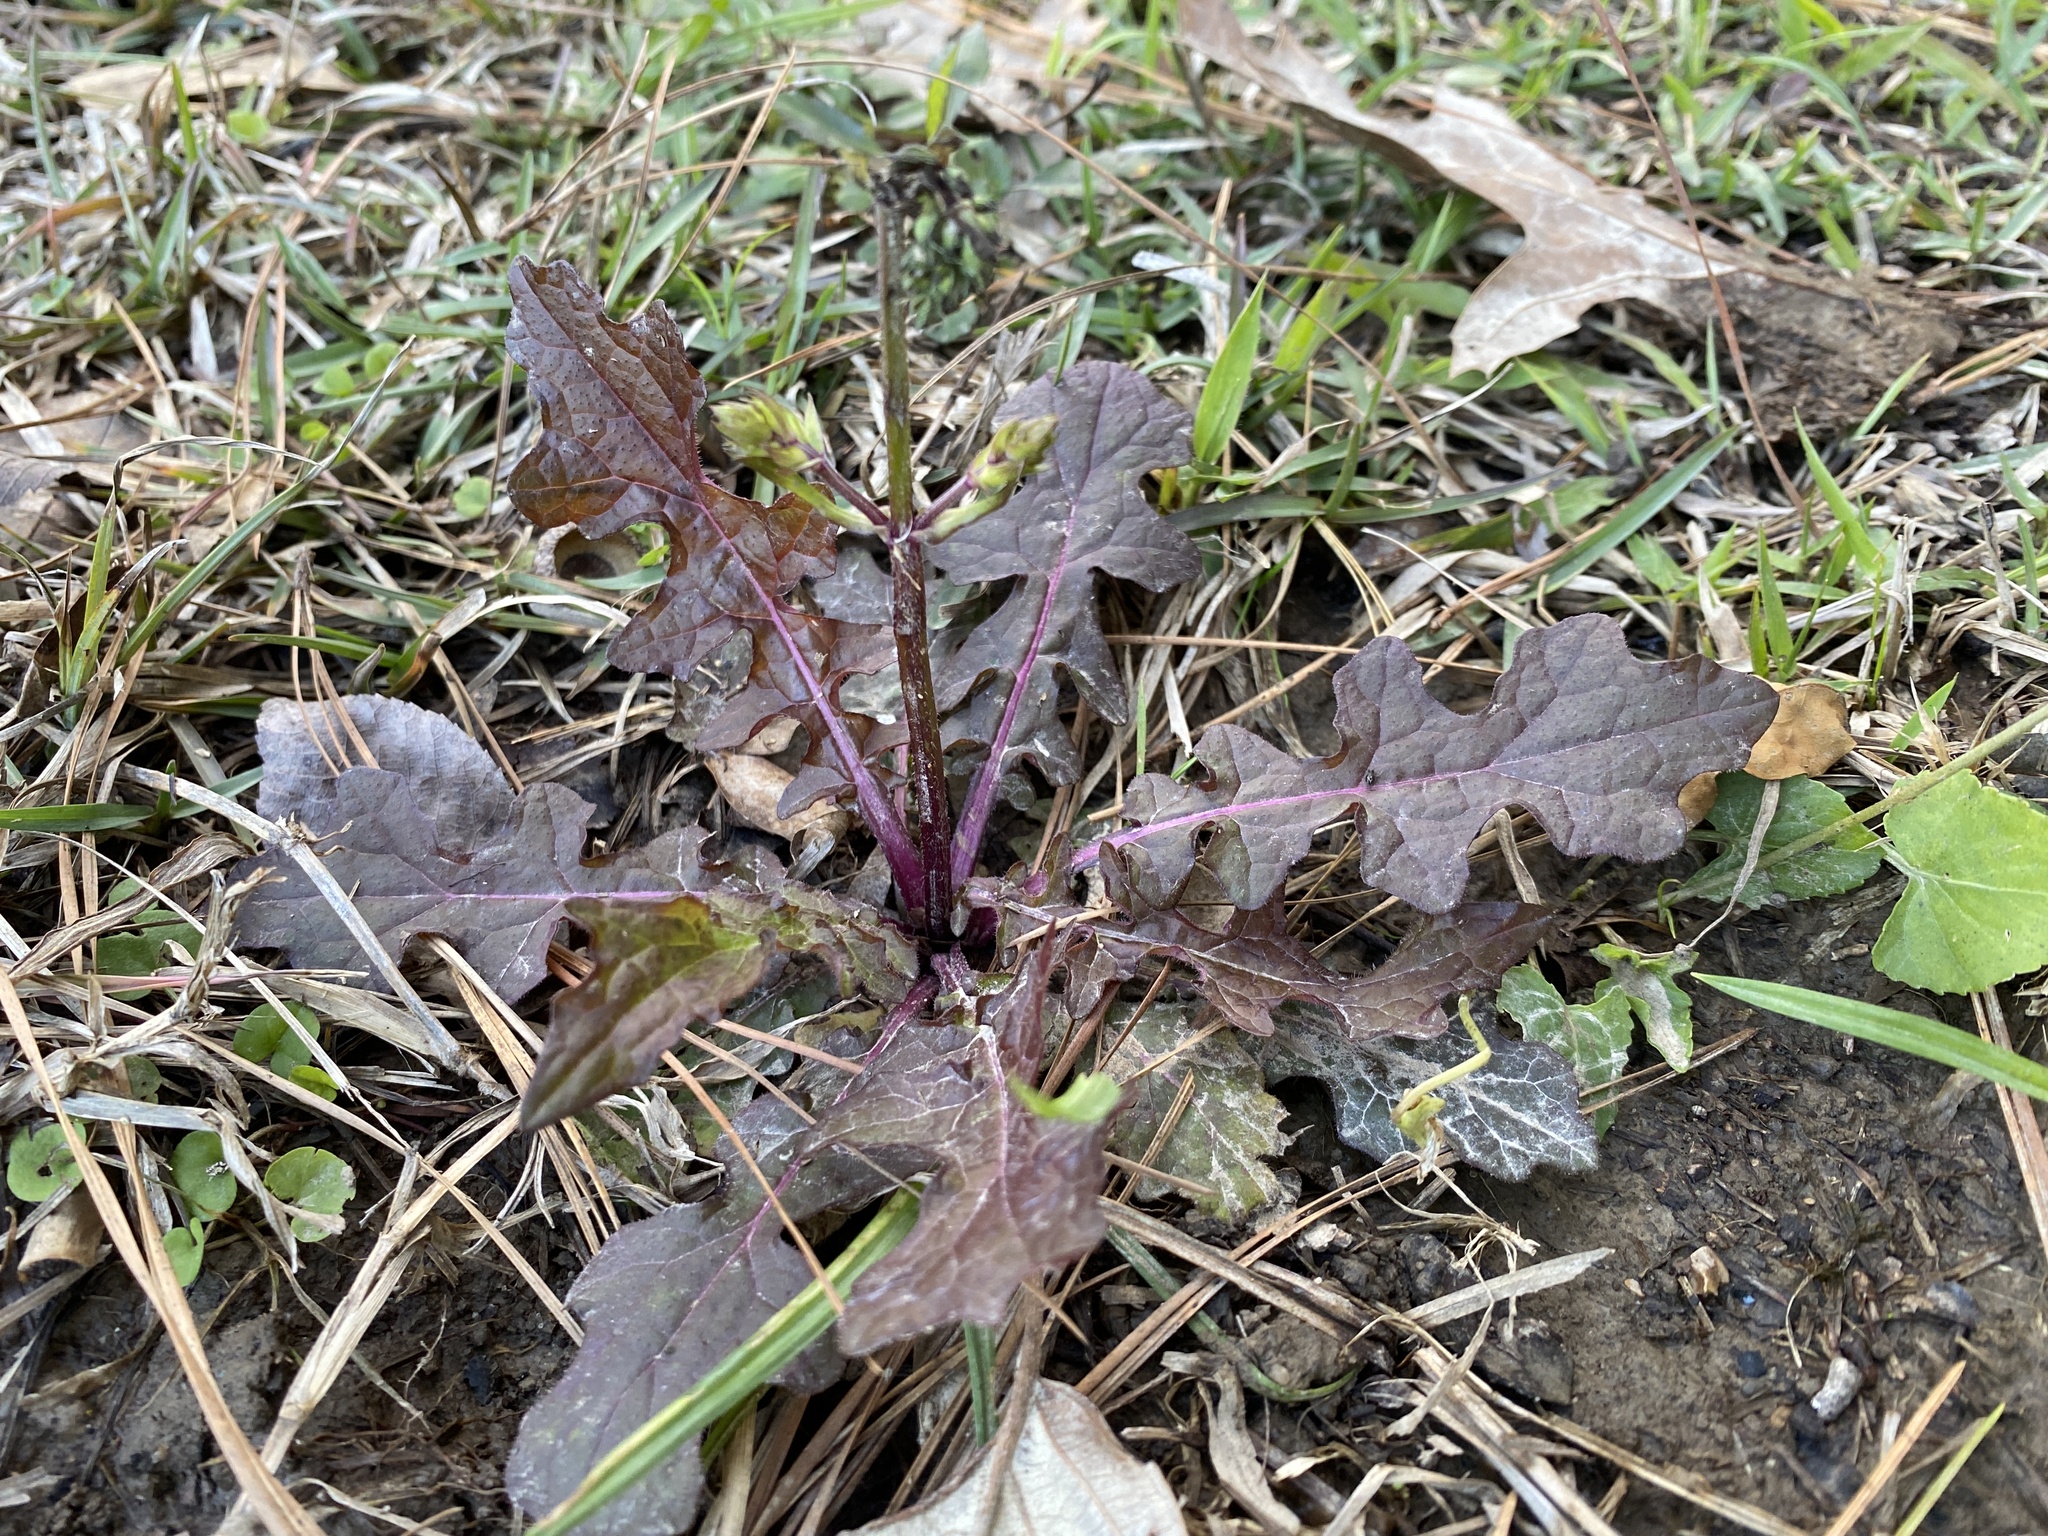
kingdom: Plantae
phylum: Tracheophyta
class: Magnoliopsida
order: Lamiales
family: Lamiaceae
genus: Salvia
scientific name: Salvia lyrata
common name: Cancerweed
